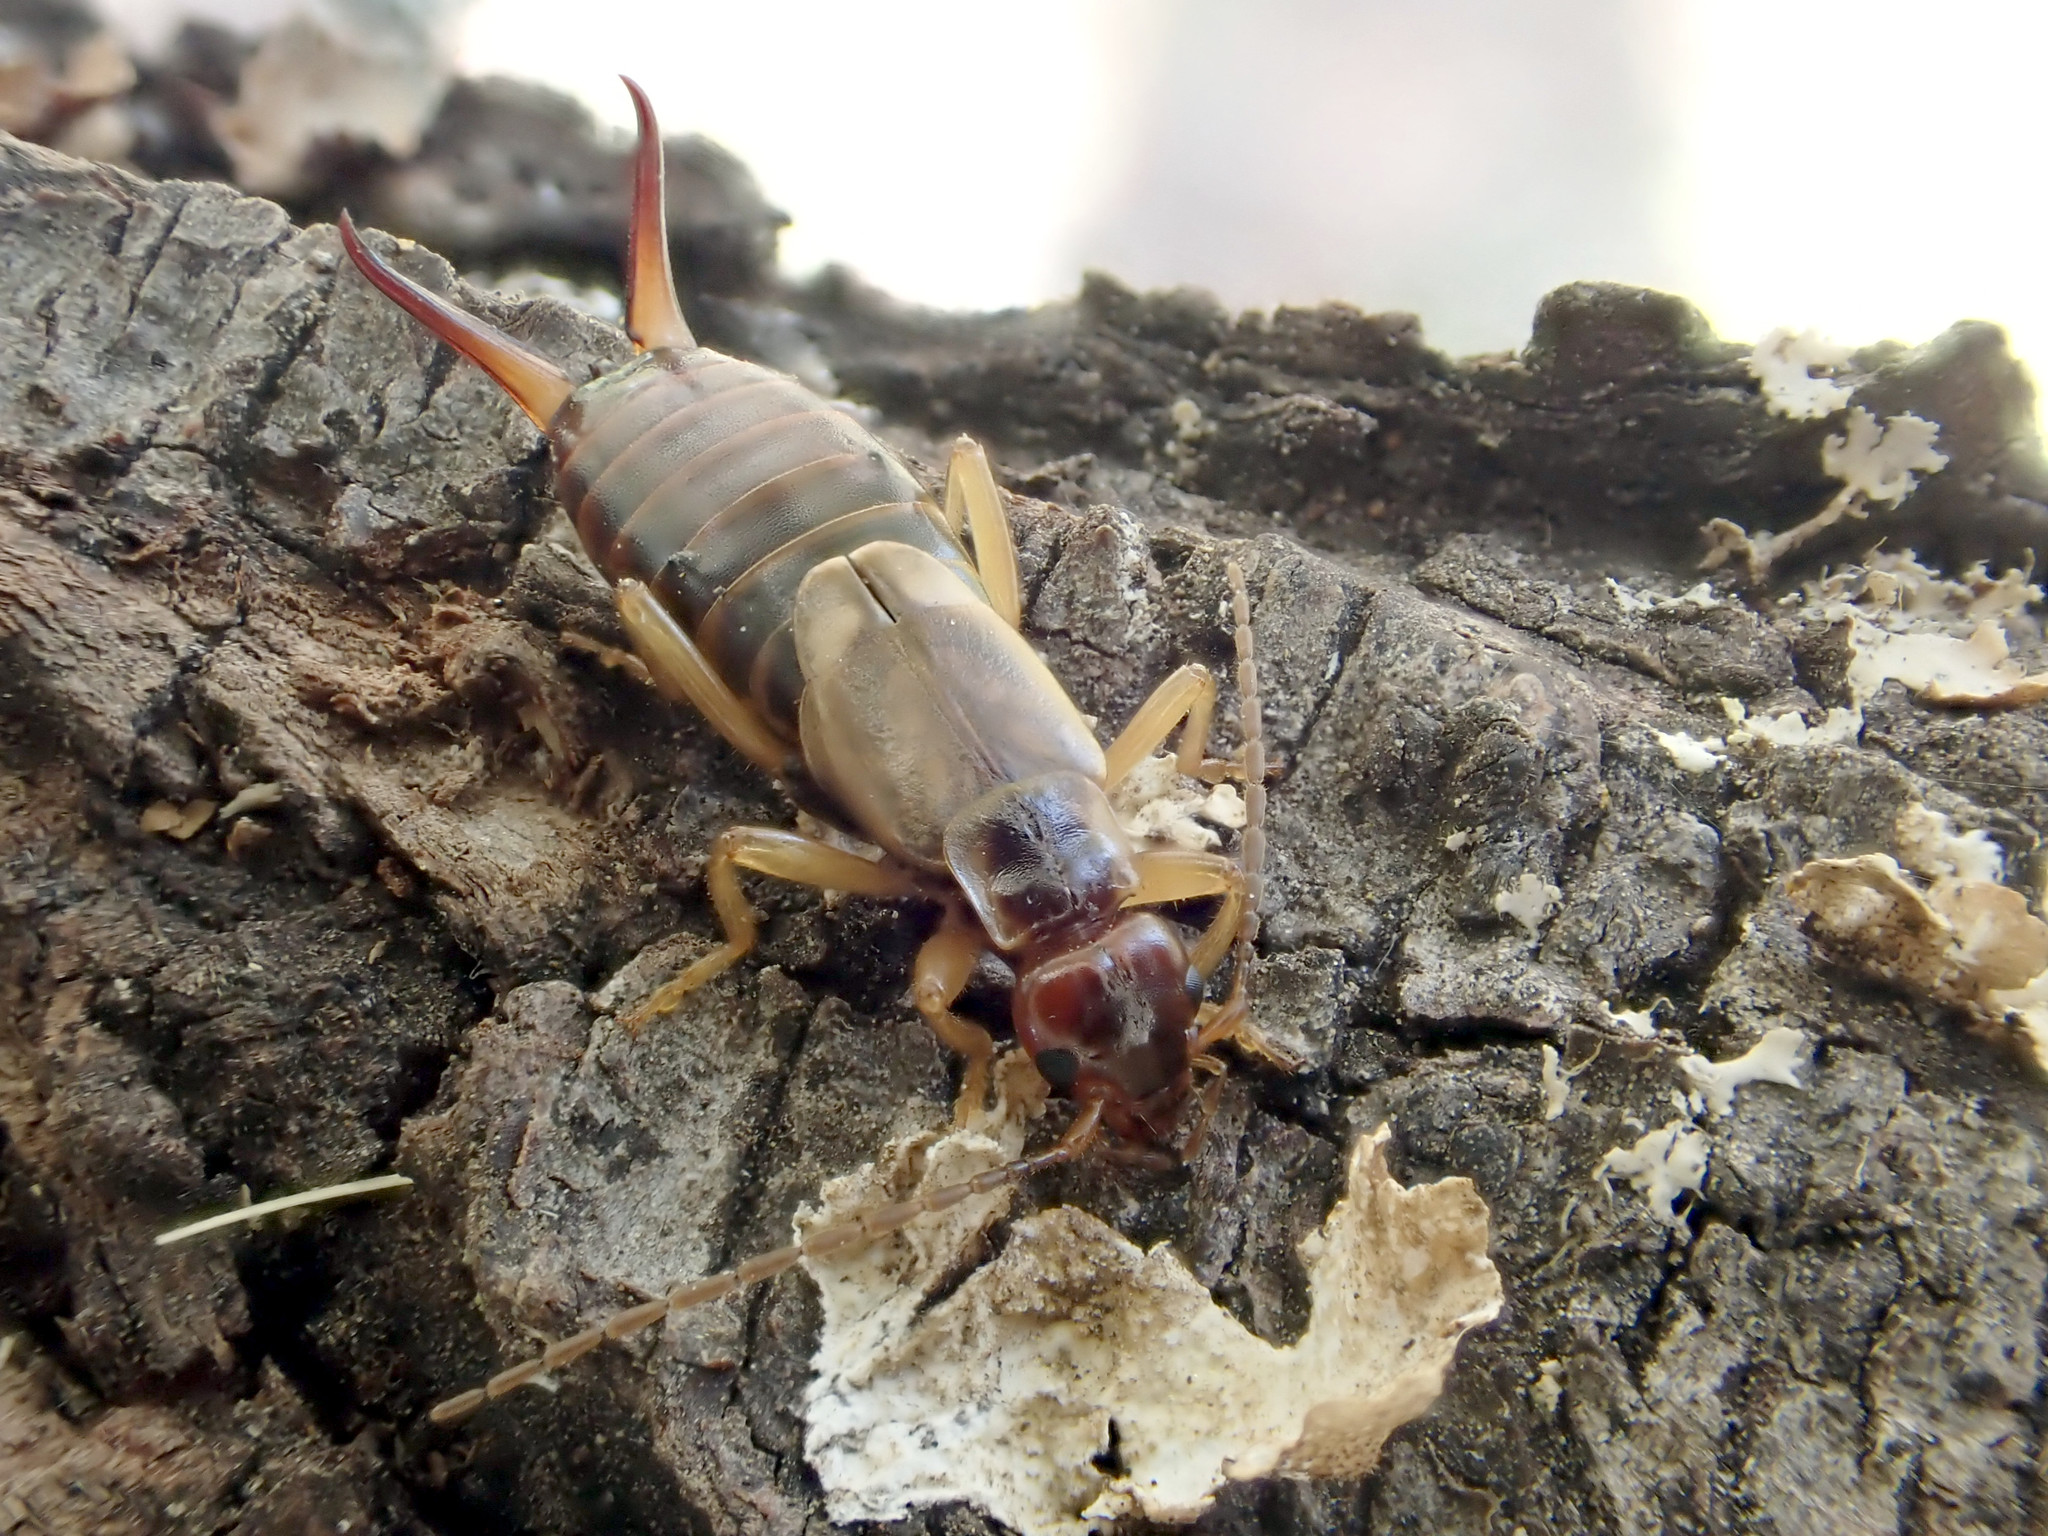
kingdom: Animalia
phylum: Arthropoda
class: Insecta
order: Dermaptera
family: Forficulidae
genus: Forficula
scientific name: Forficula
